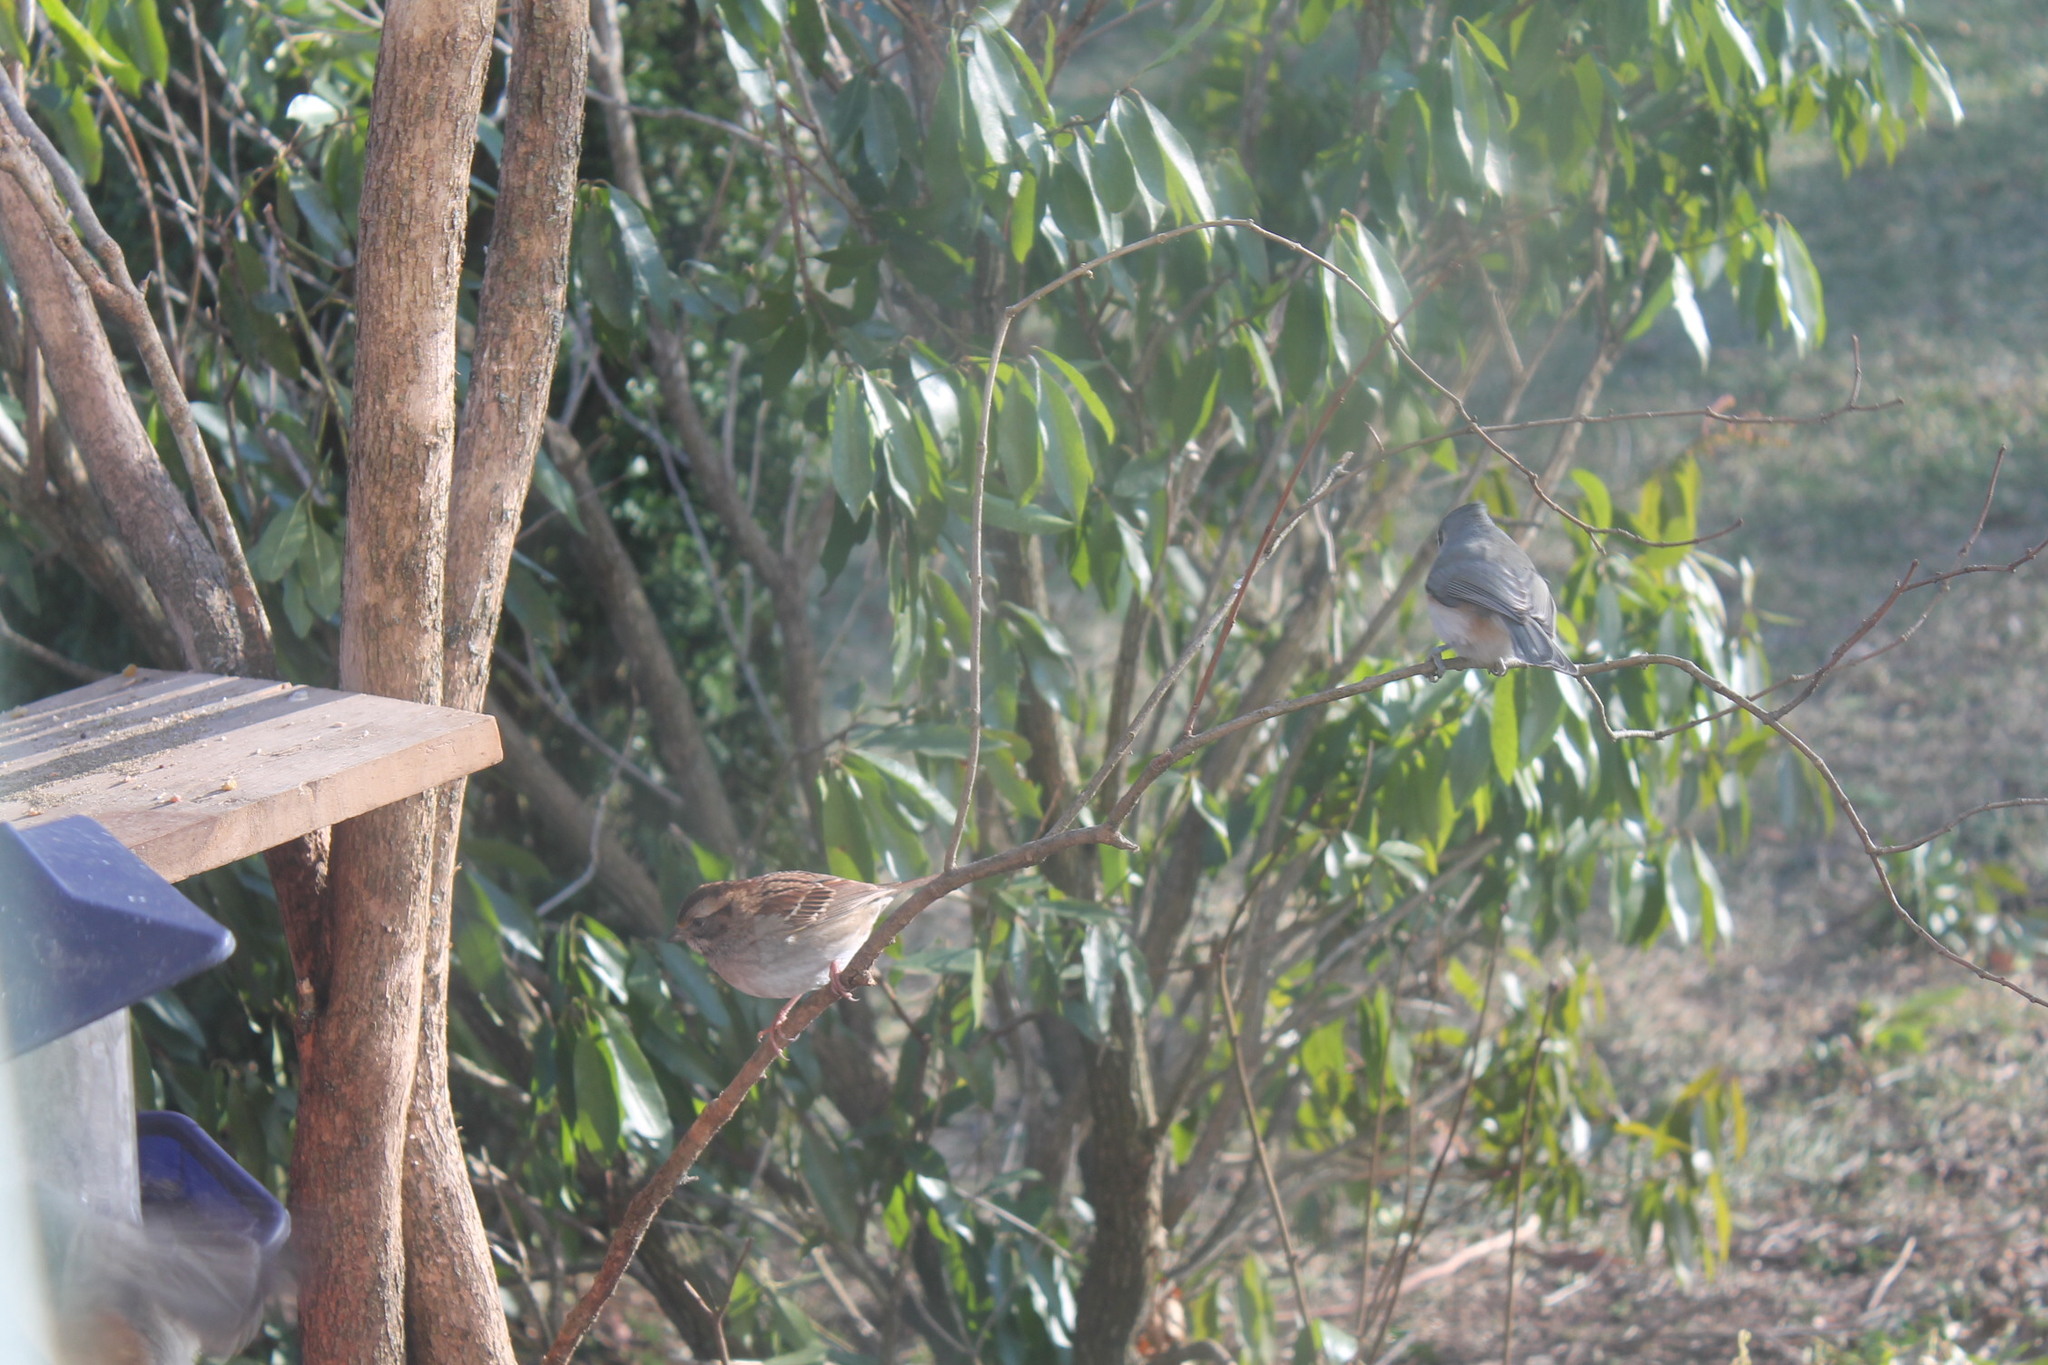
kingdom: Animalia
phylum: Chordata
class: Aves
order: Passeriformes
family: Passerellidae
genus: Zonotrichia
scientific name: Zonotrichia albicollis
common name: White-throated sparrow
